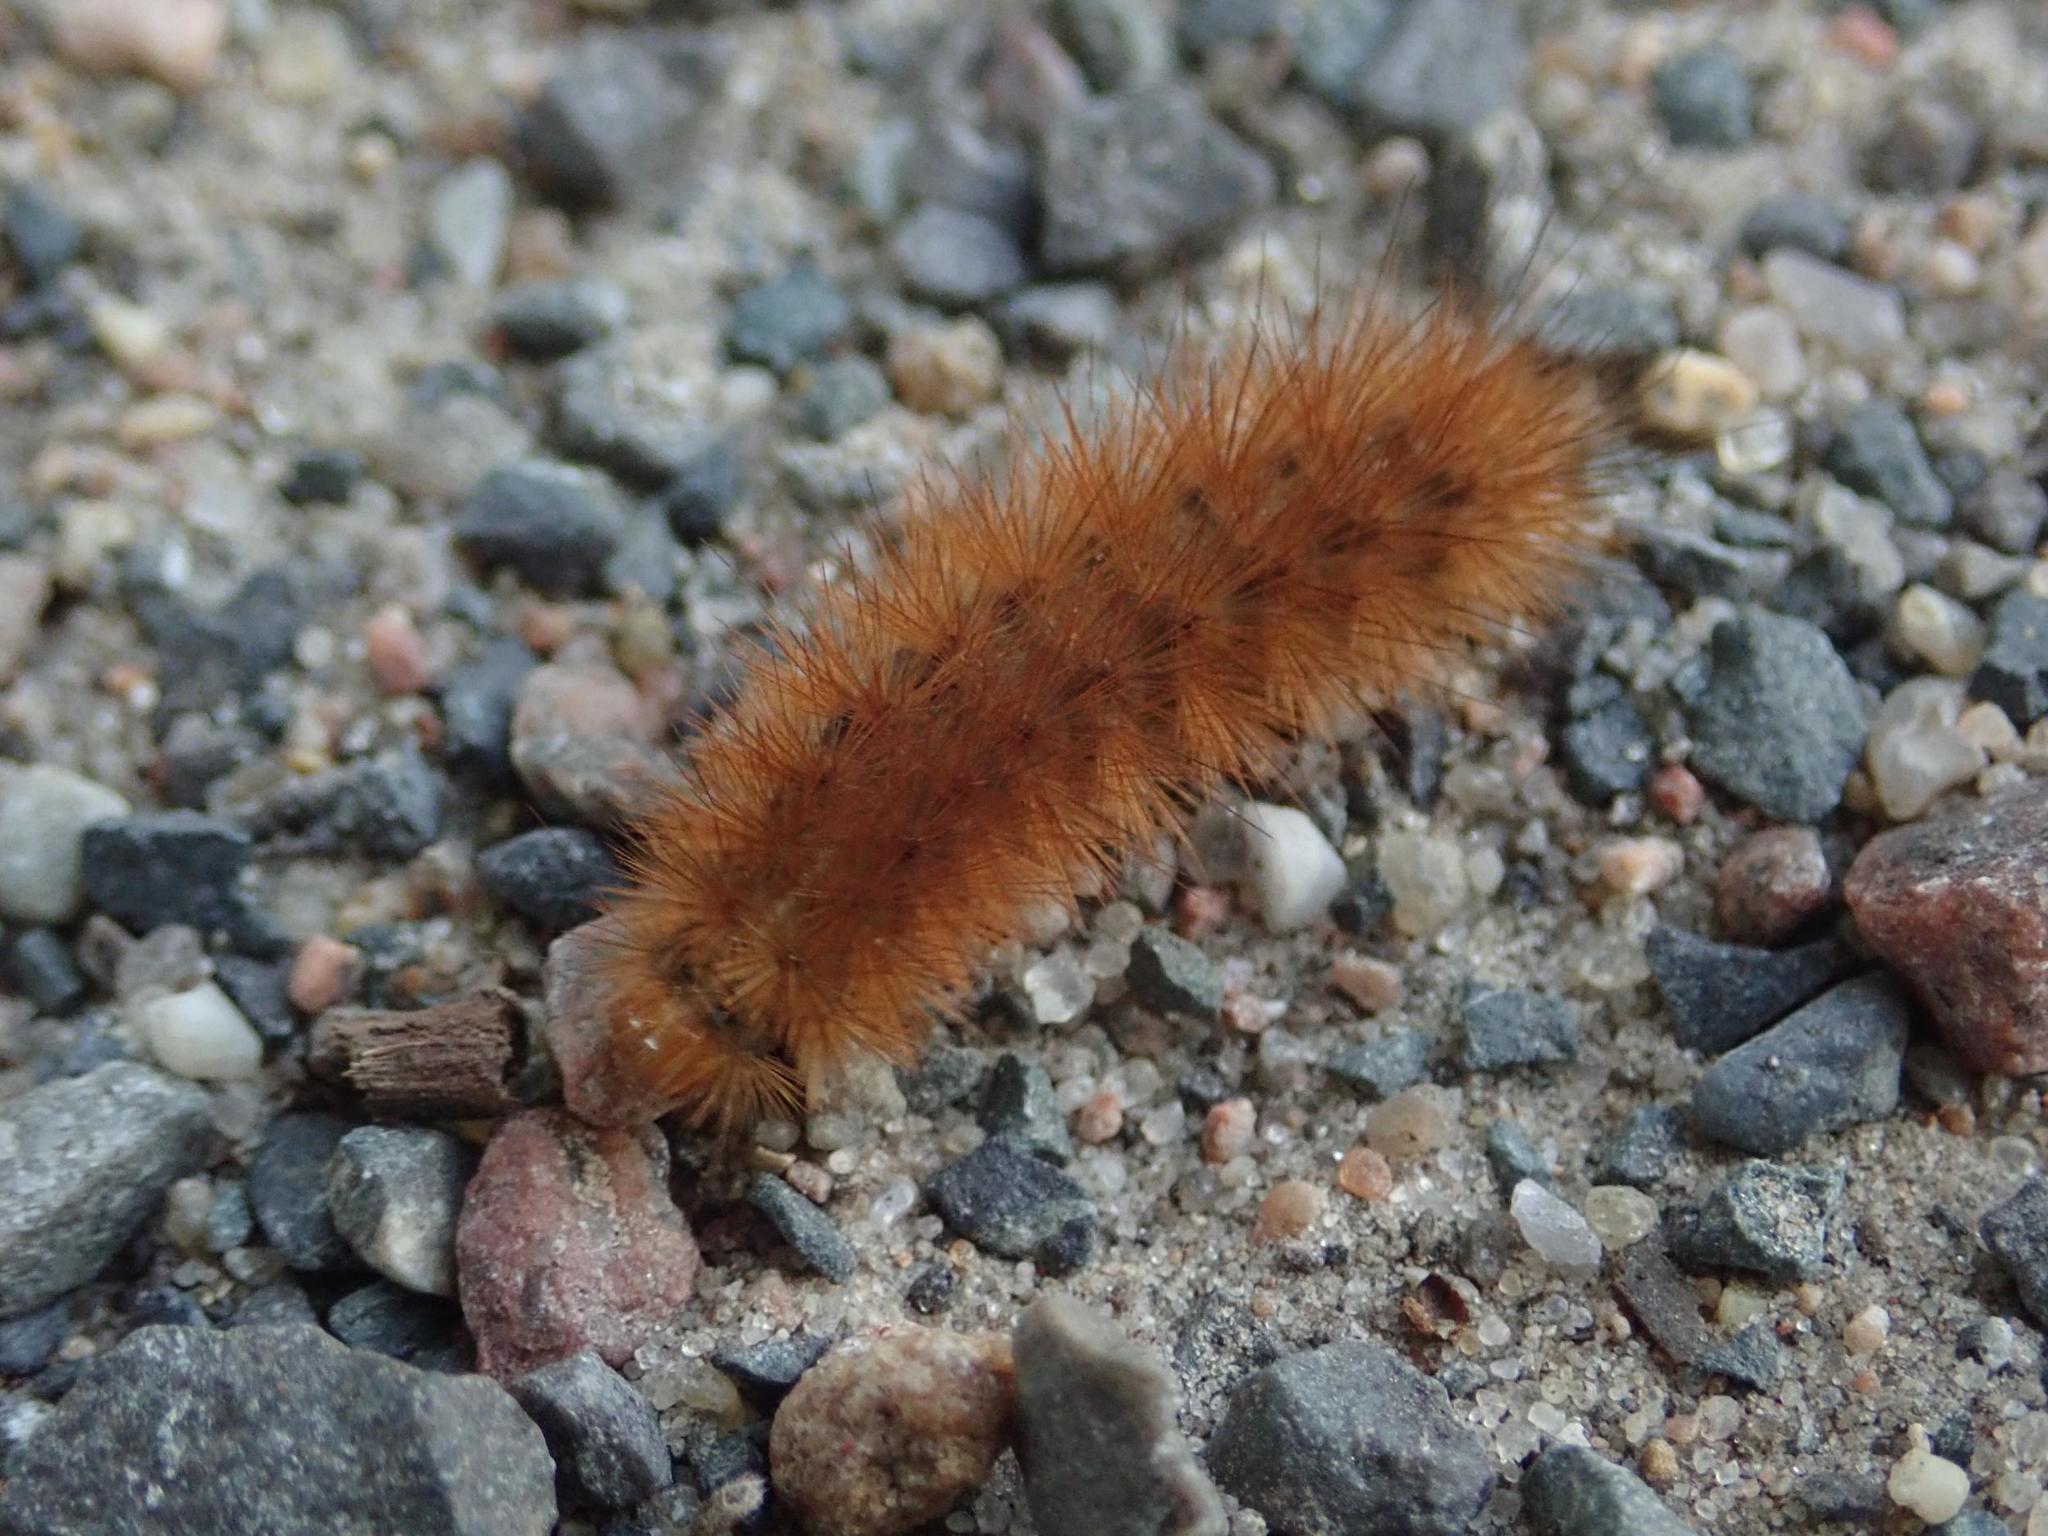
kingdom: Animalia
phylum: Arthropoda
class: Insecta
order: Lepidoptera
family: Erebidae
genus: Phragmatobia
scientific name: Phragmatobia fuliginosa
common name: Ruby tiger
